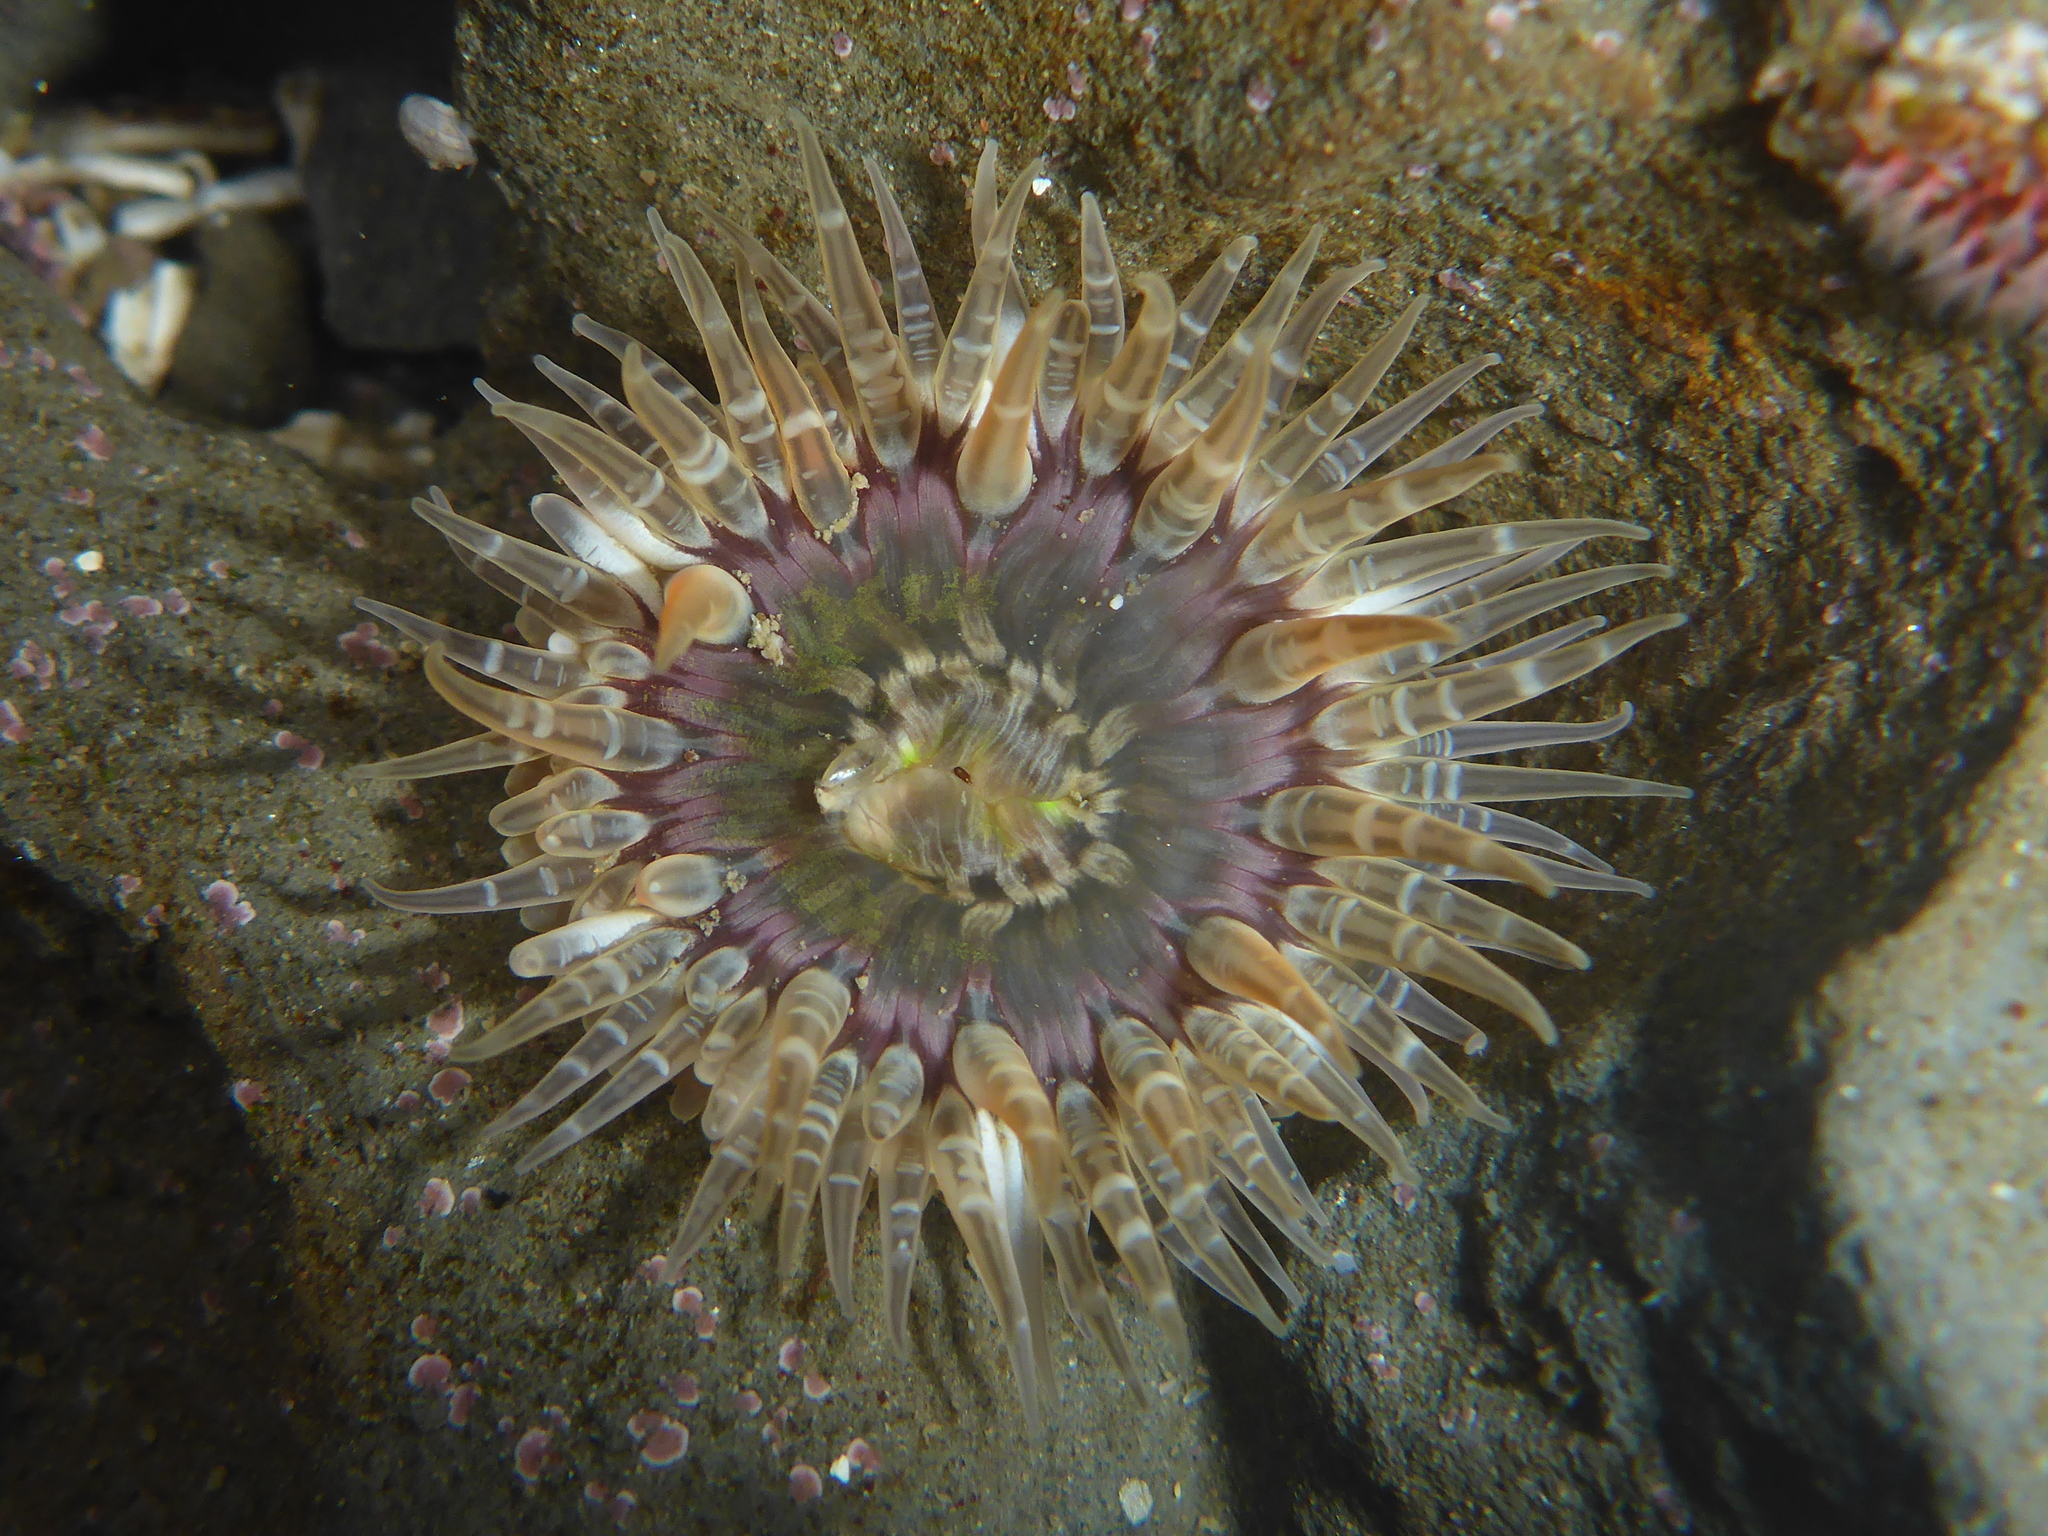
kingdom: Animalia
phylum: Cnidaria
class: Anthozoa
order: Actiniaria
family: Actiniidae
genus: Anthopleura
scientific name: Anthopleura artemisia
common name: Buried sea anemone
